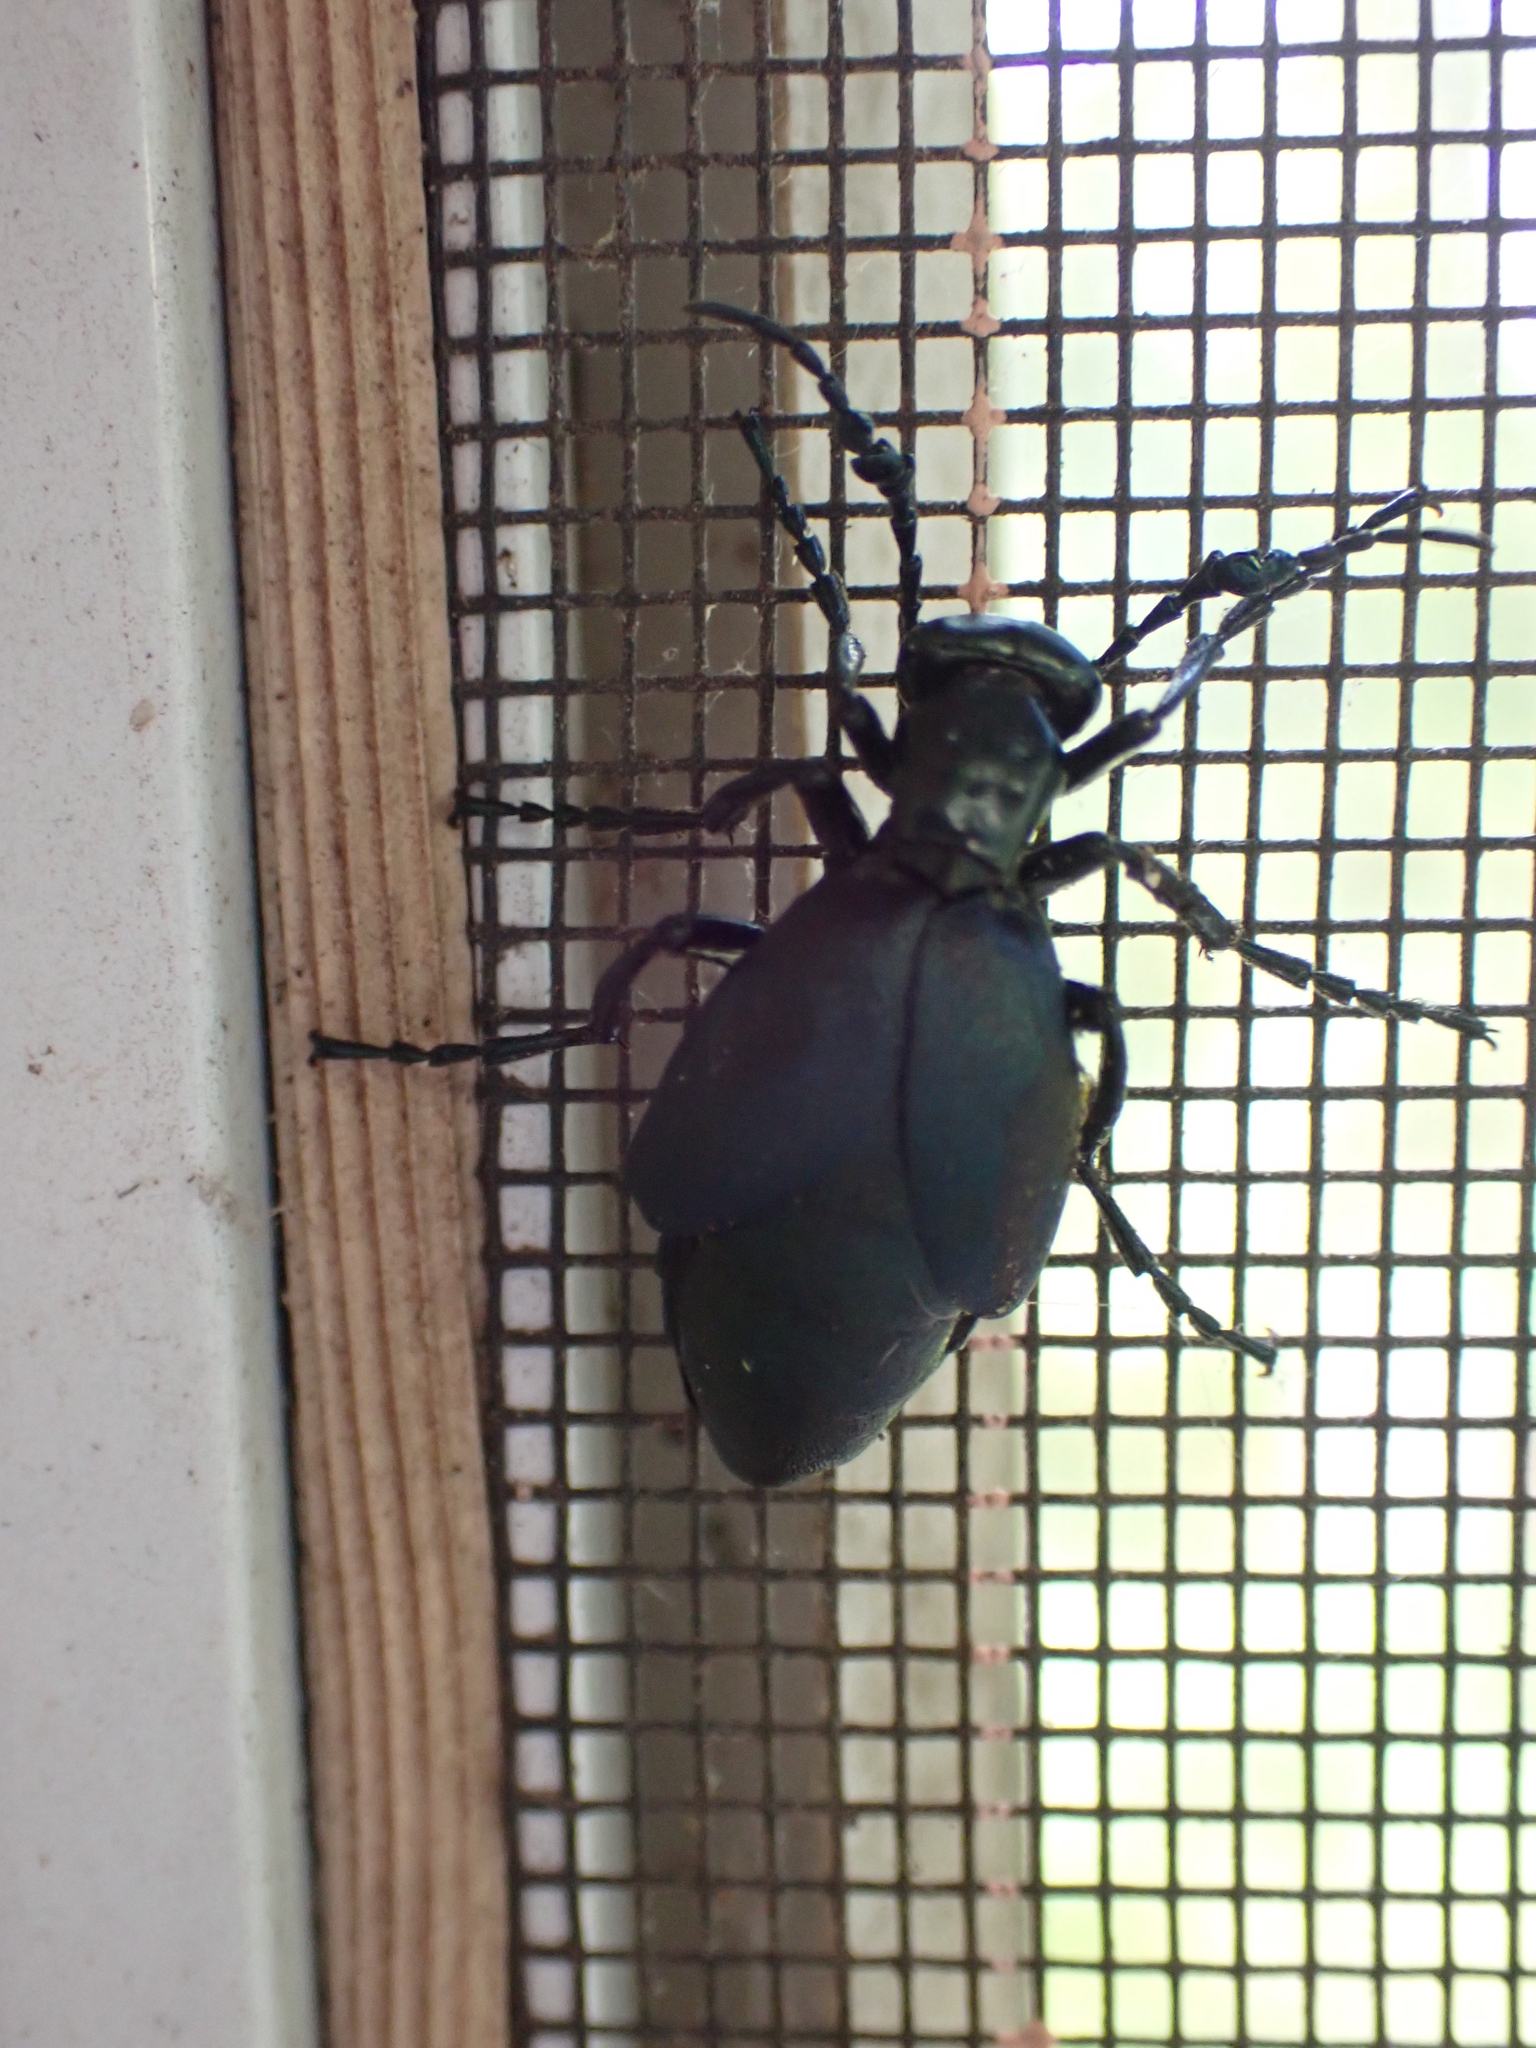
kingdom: Animalia
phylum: Arthropoda
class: Insecta
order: Coleoptera
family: Meloidae
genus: Meloe
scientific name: Meloe impressus
